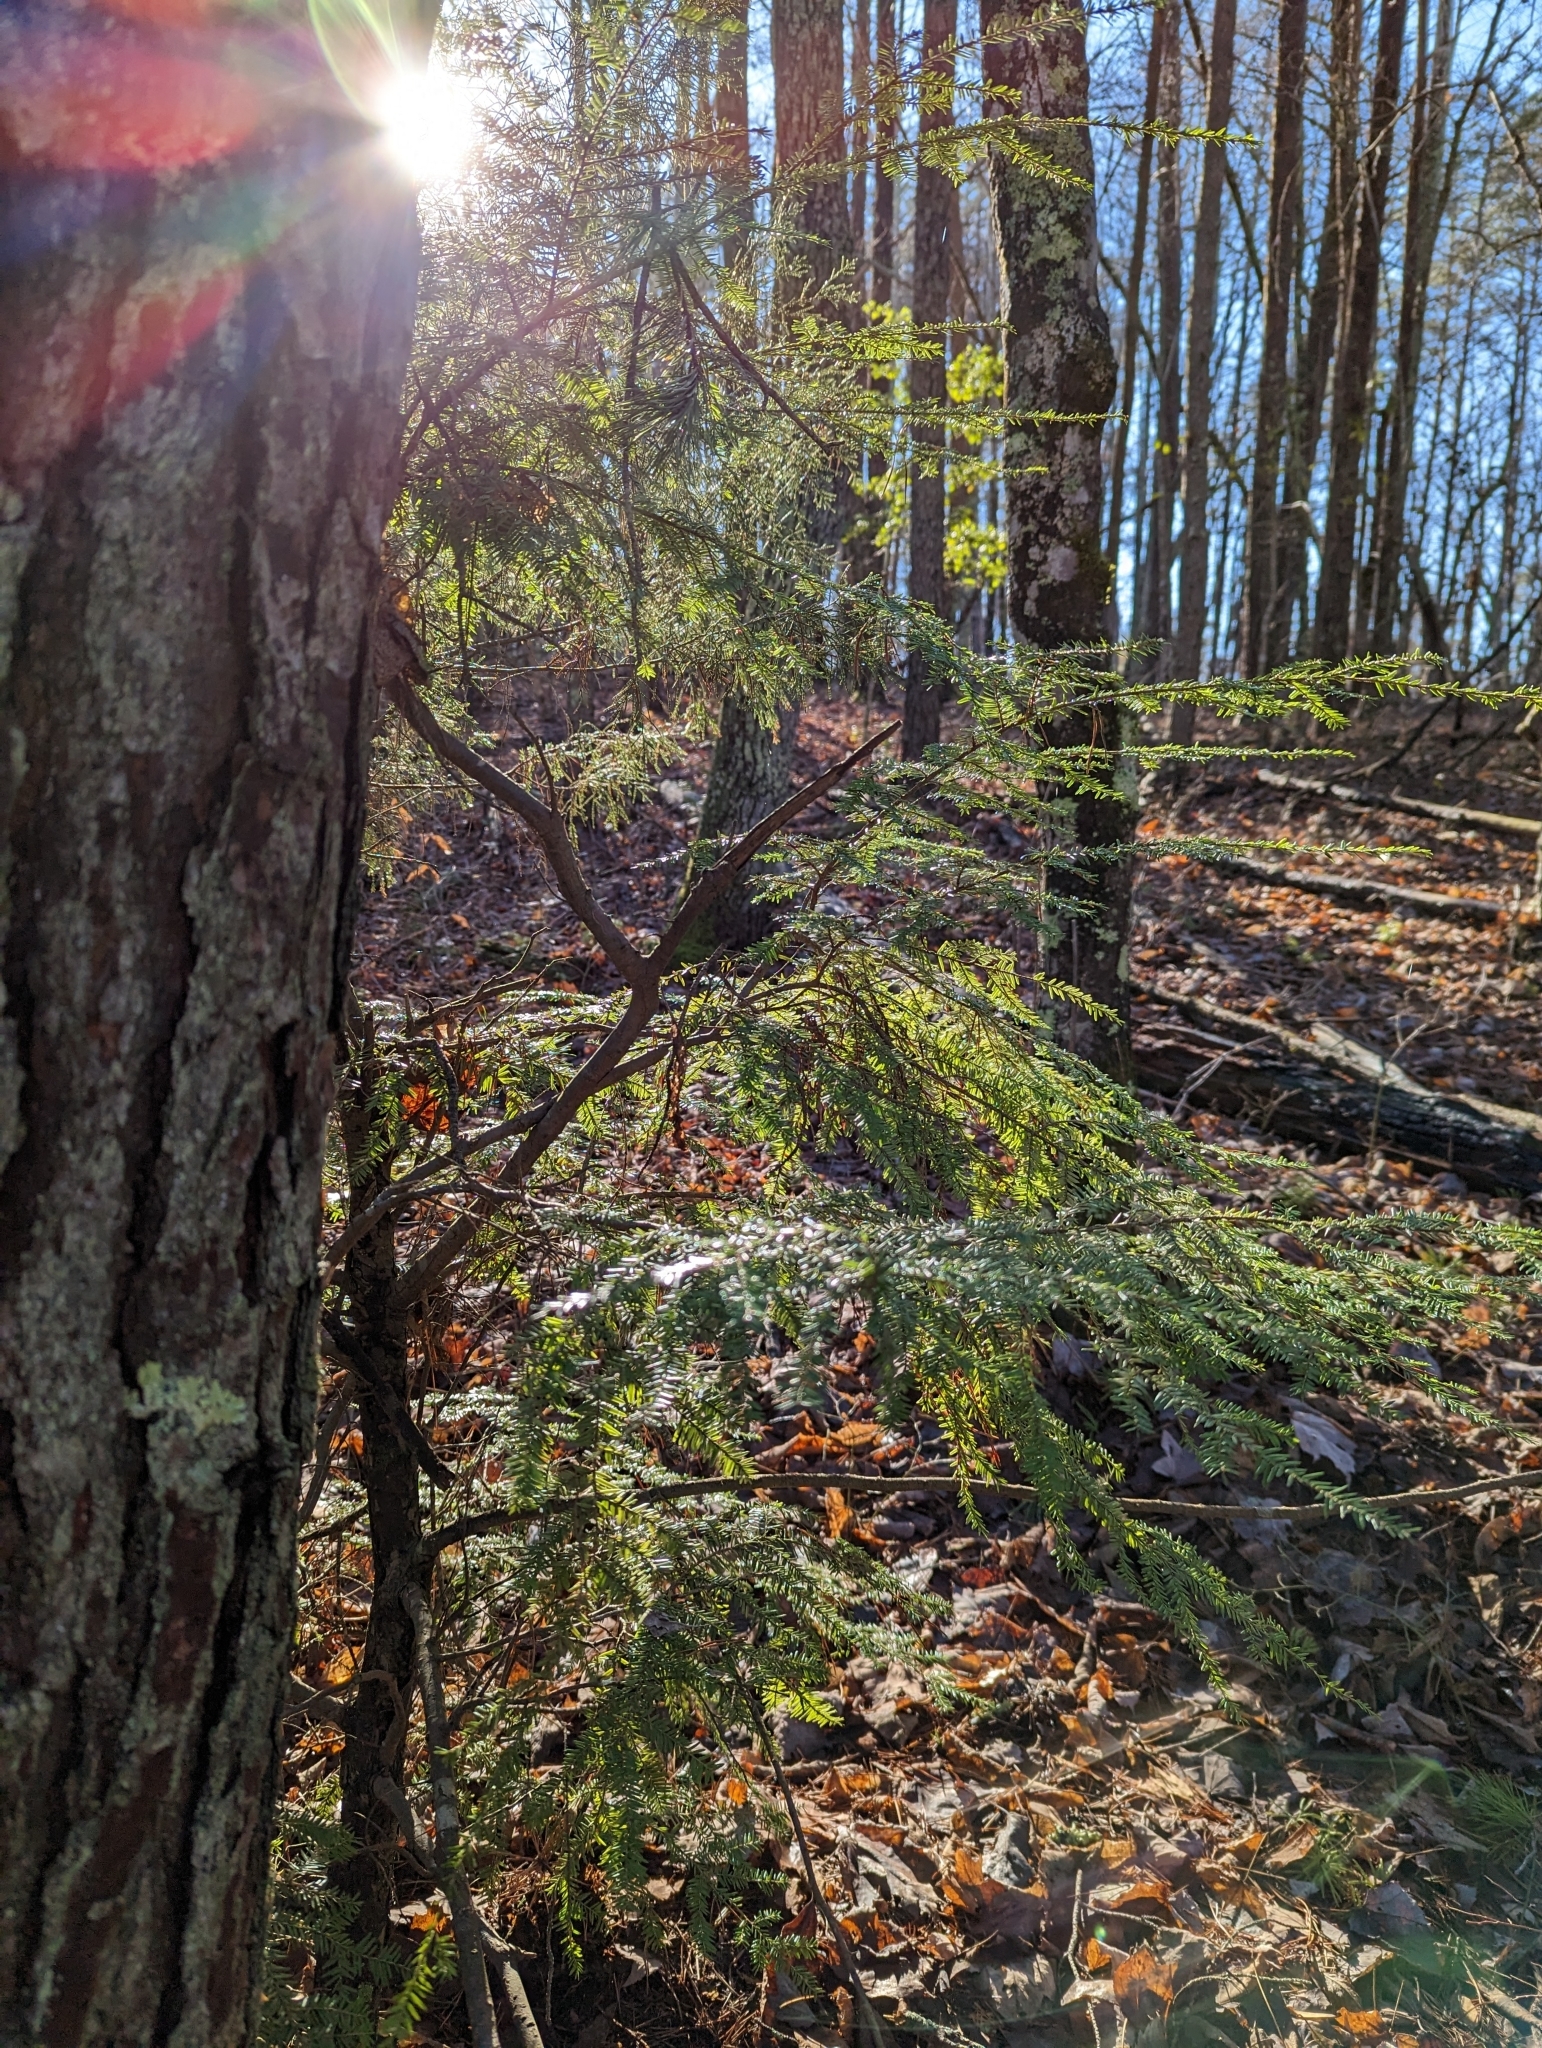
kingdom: Plantae
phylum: Tracheophyta
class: Pinopsida
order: Pinales
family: Pinaceae
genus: Tsuga
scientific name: Tsuga canadensis
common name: Eastern hemlock
